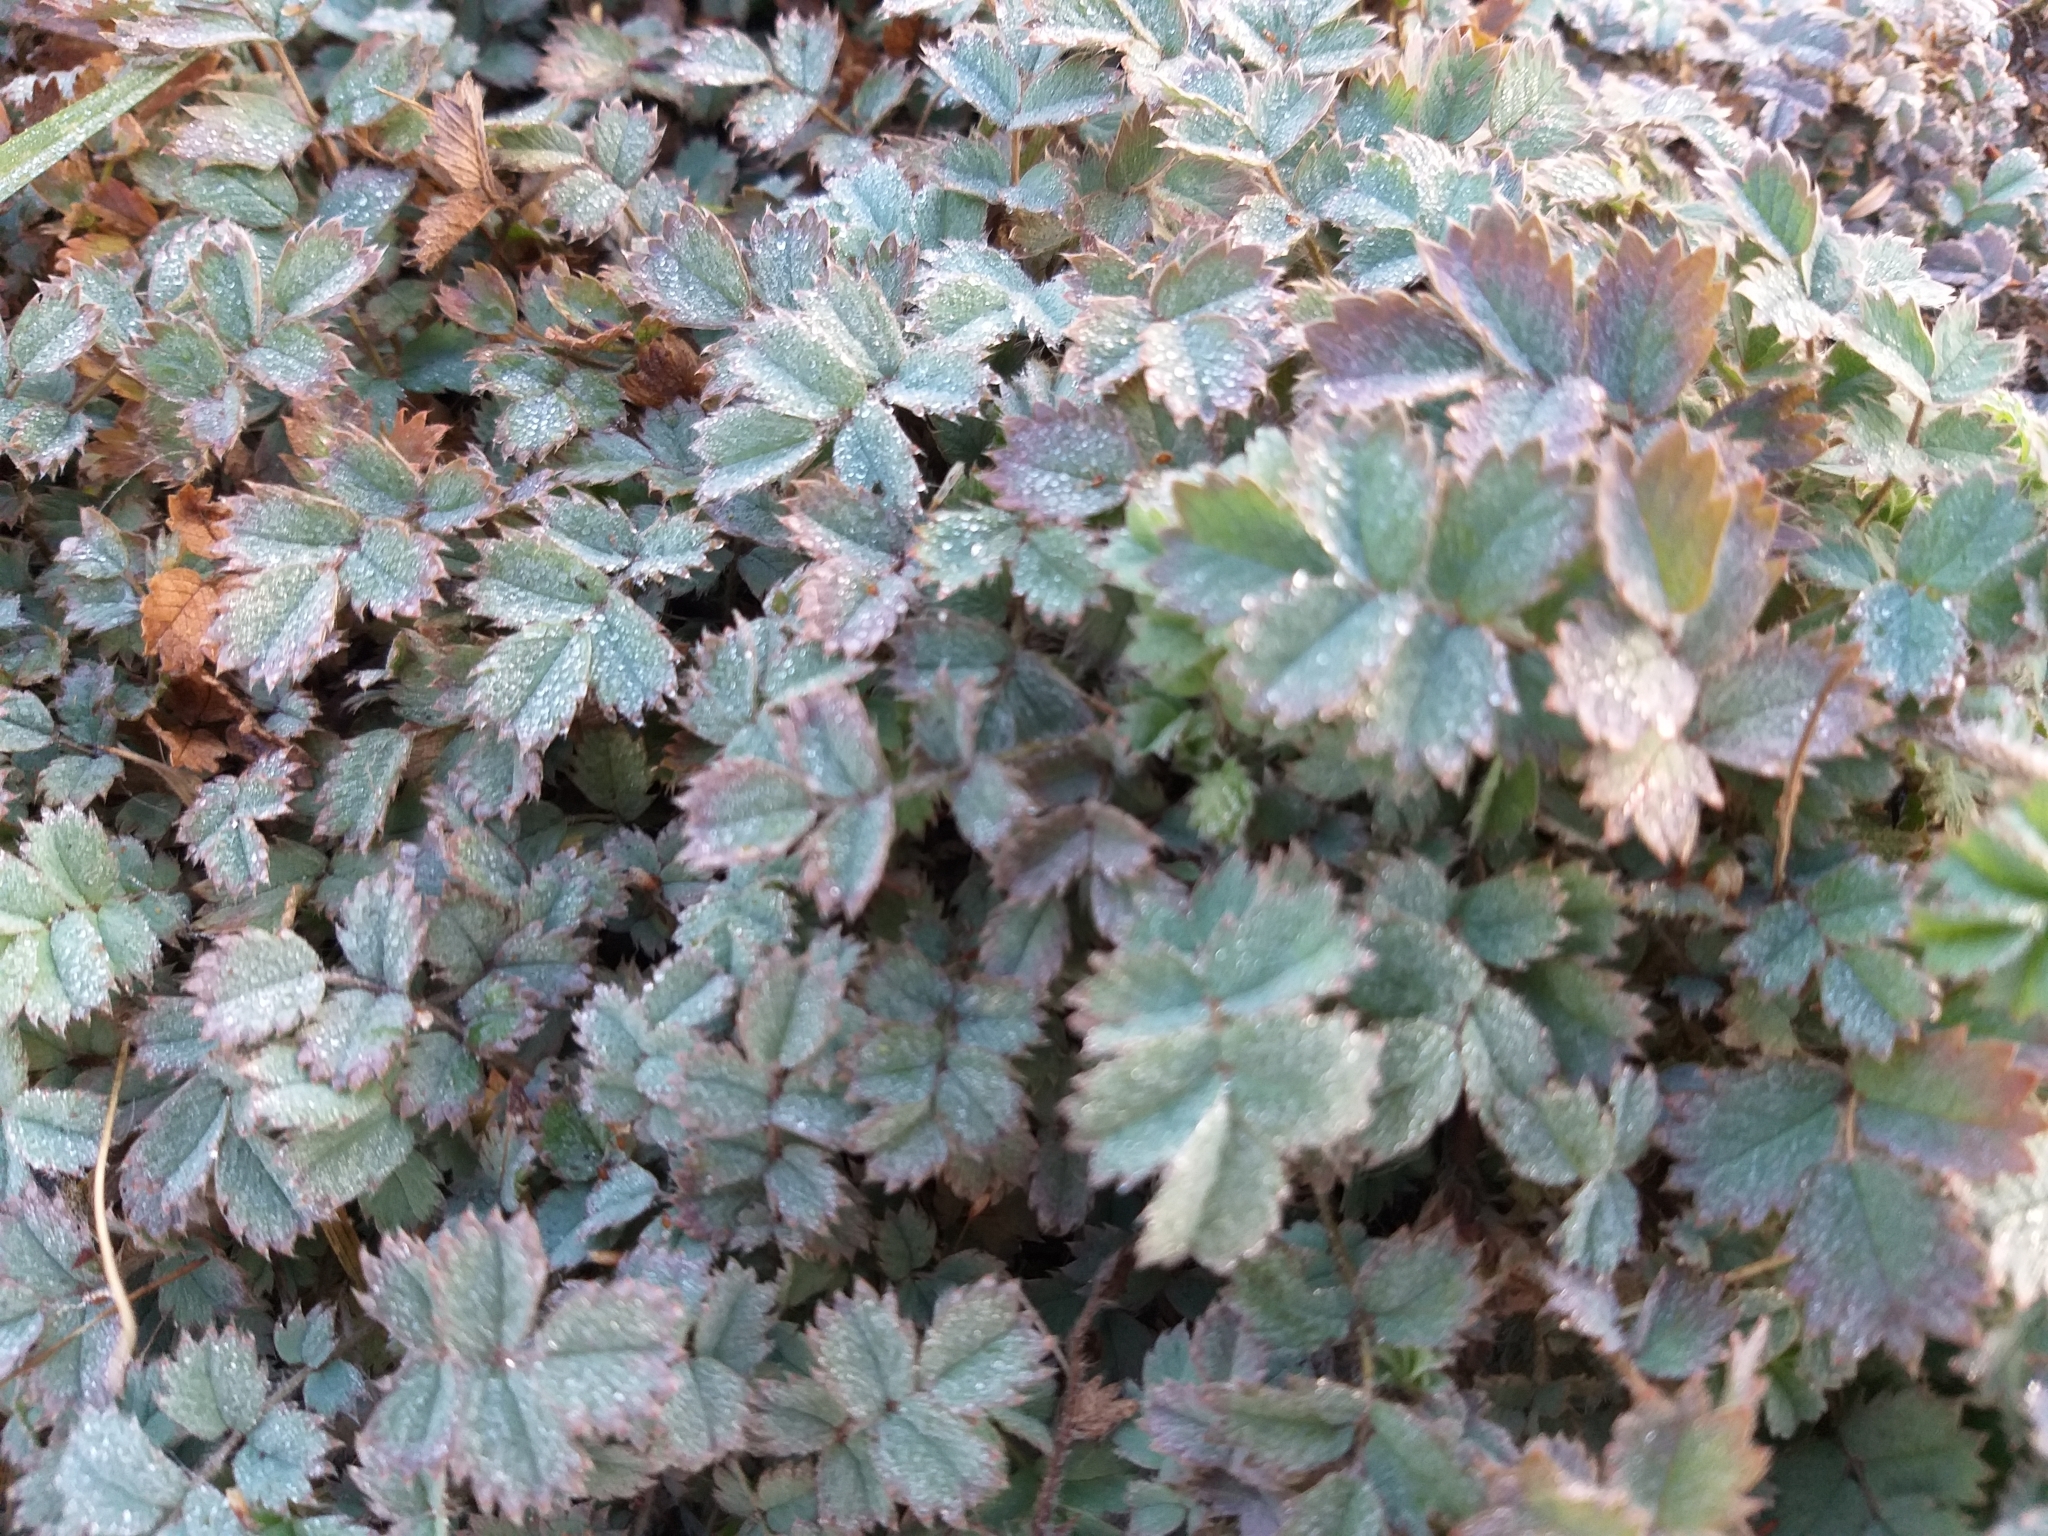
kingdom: Plantae
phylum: Tracheophyta
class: Magnoliopsida
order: Rosales
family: Rosaceae
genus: Acaena
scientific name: Acaena caesiiglauca
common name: Glaucous pirri-pirri-bur
